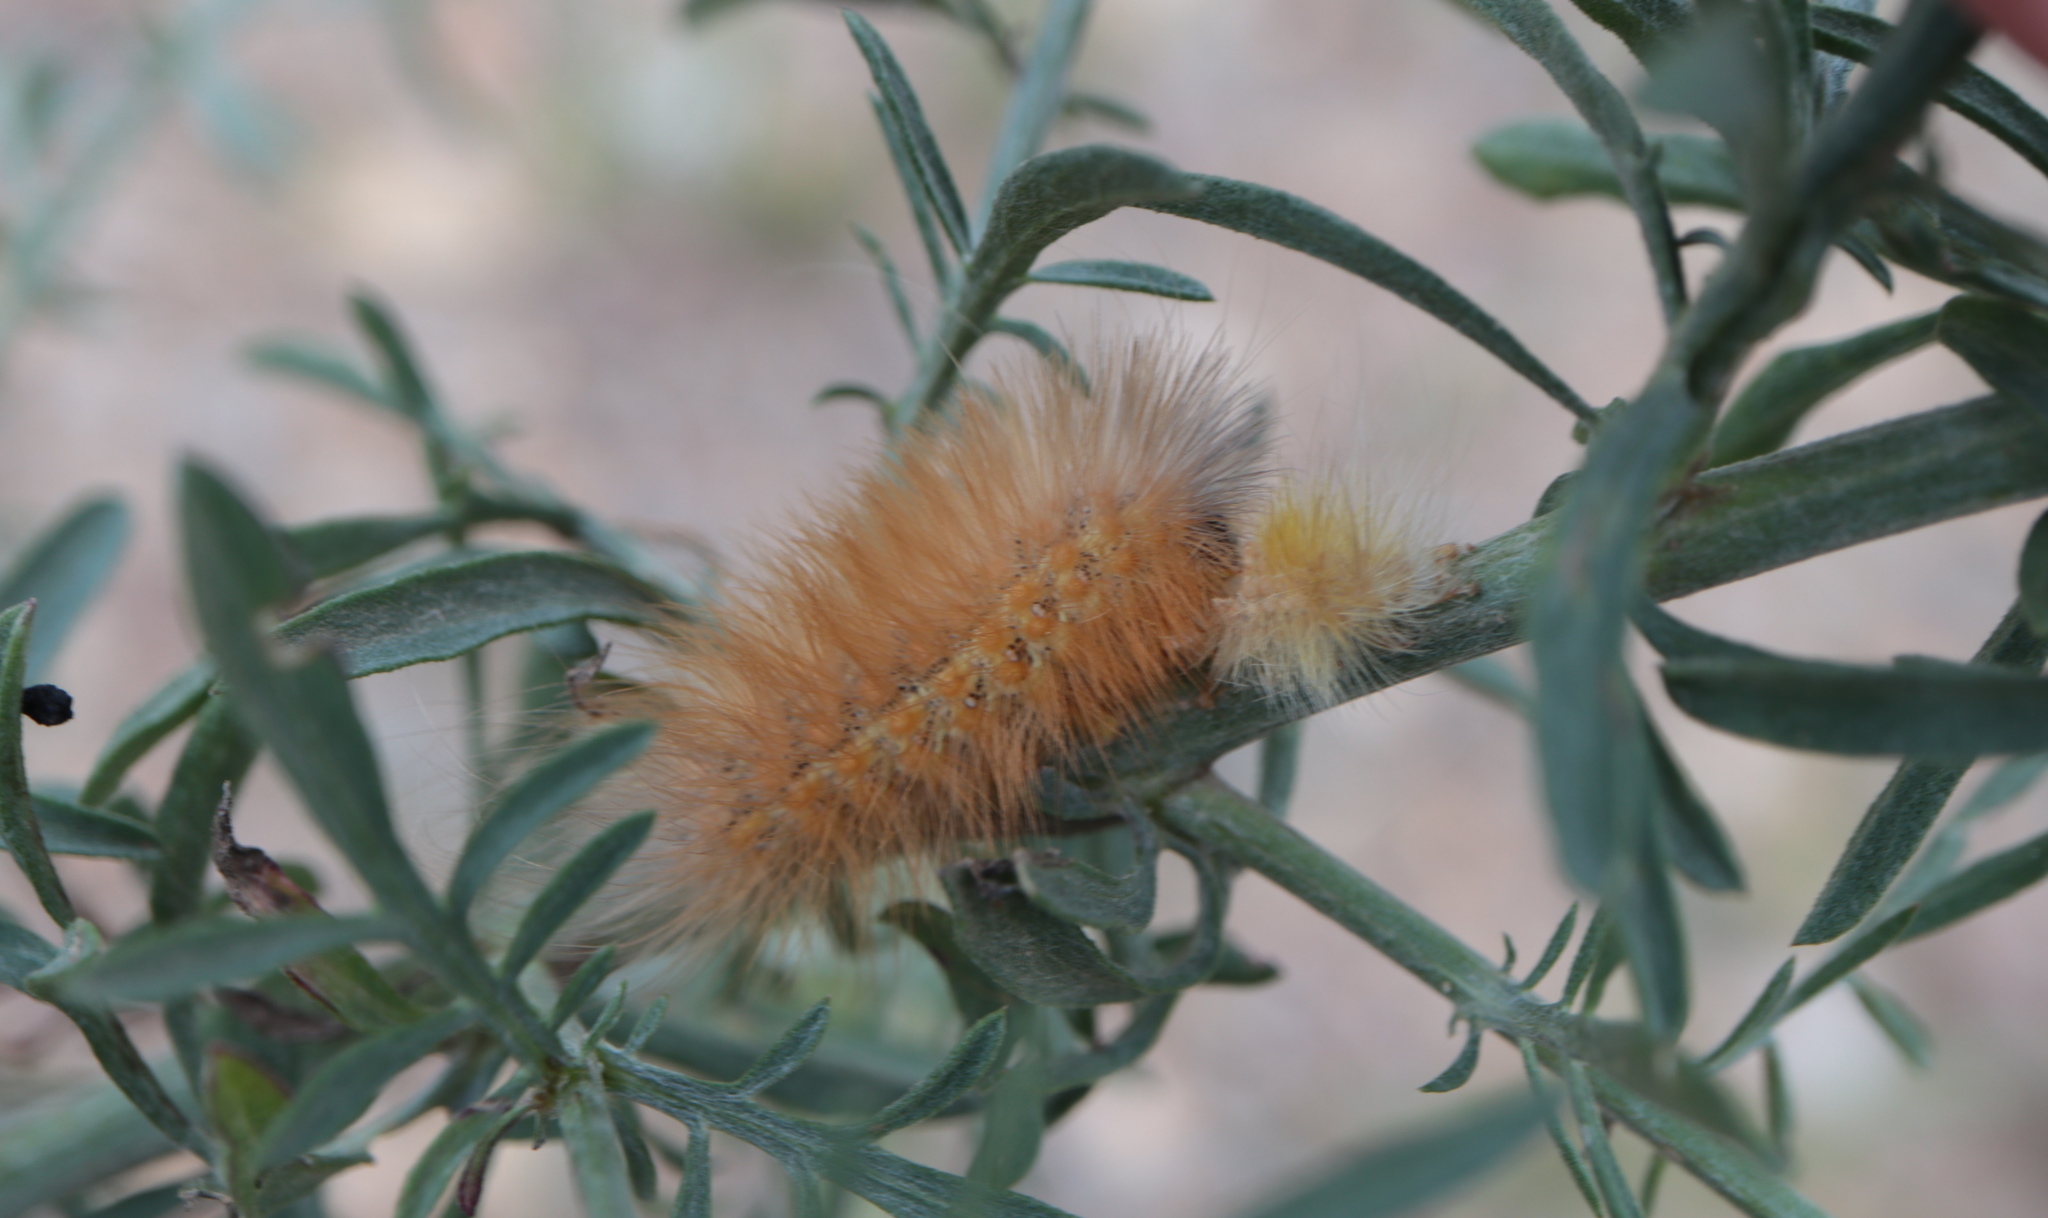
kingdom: Animalia
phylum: Arthropoda
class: Insecta
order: Lepidoptera
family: Erebidae
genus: Estigmene
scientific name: Estigmene acrea
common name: Salt marsh moth
